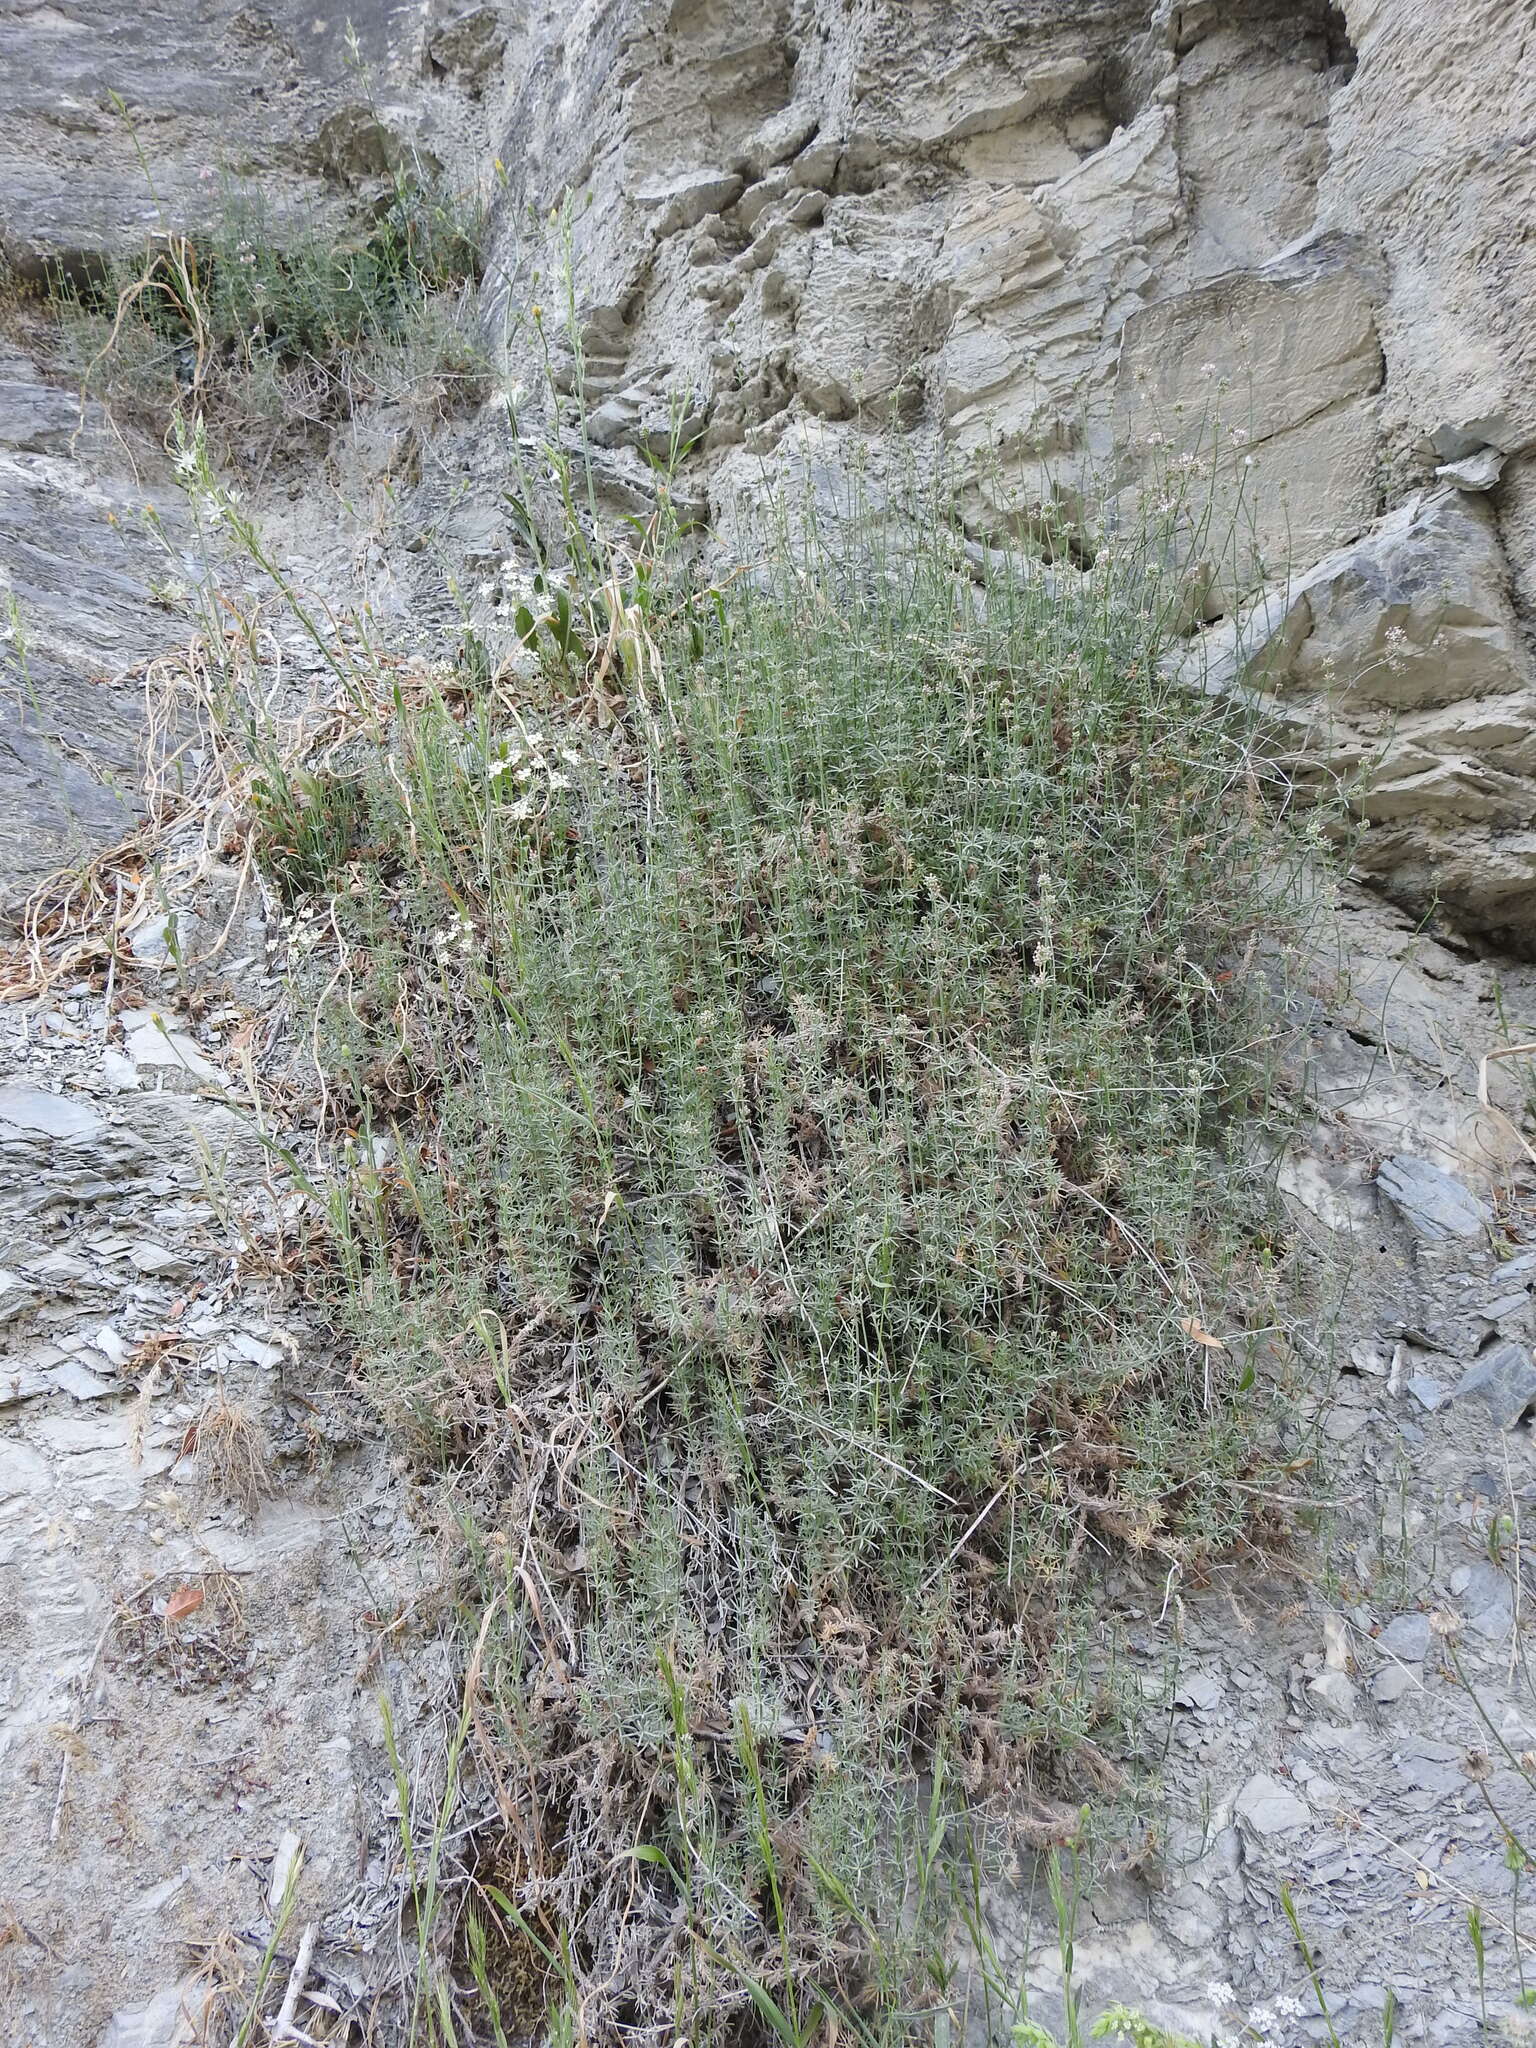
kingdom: Plantae
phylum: Tracheophyta
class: Magnoliopsida
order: Gentianales
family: Rubiaceae
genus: Hexaphylla
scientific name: Hexaphylla pubescens
